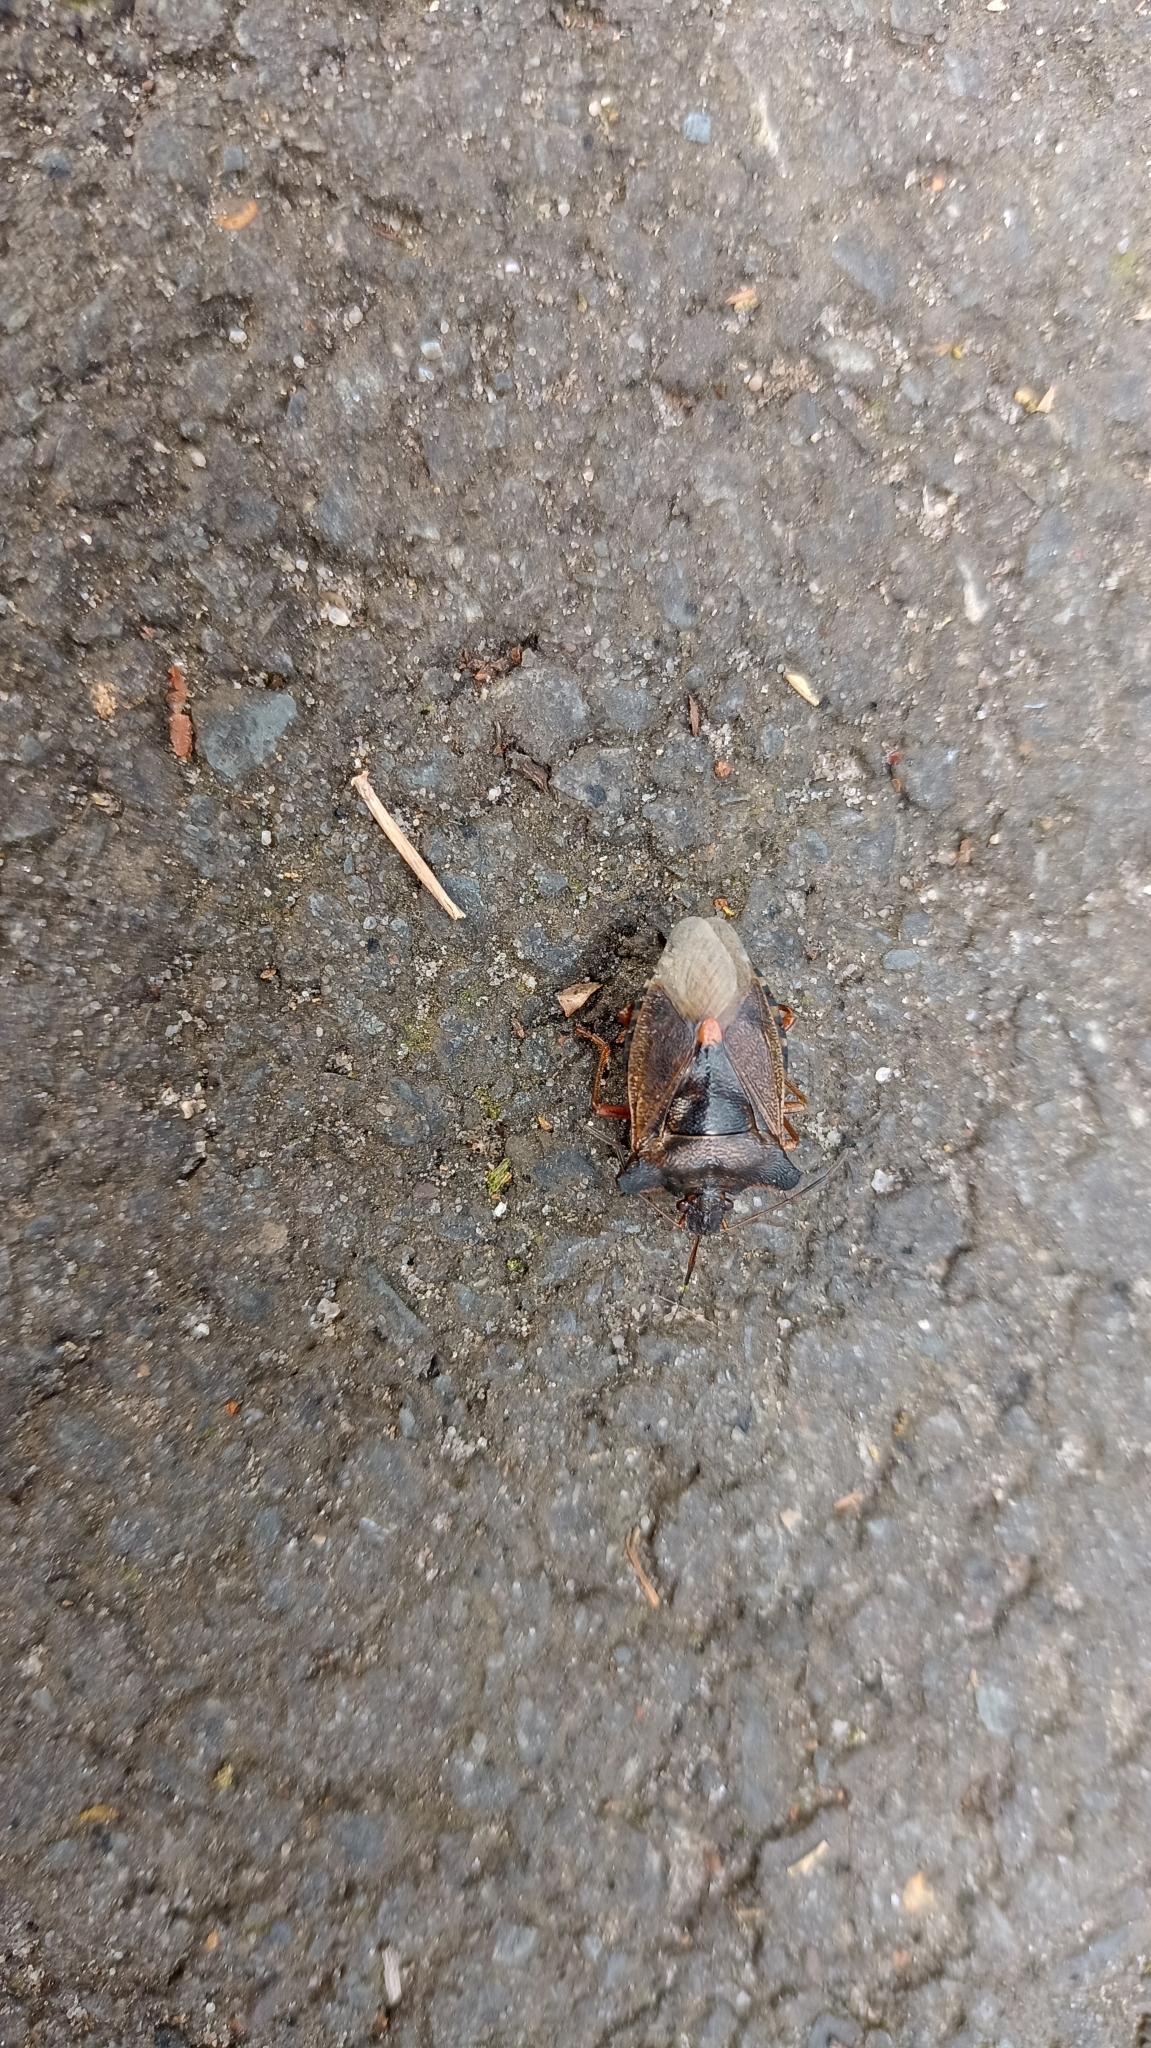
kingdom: Animalia
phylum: Arthropoda
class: Insecta
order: Hemiptera
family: Pentatomidae
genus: Pentatoma
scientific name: Pentatoma rufipes
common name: Forest bug
